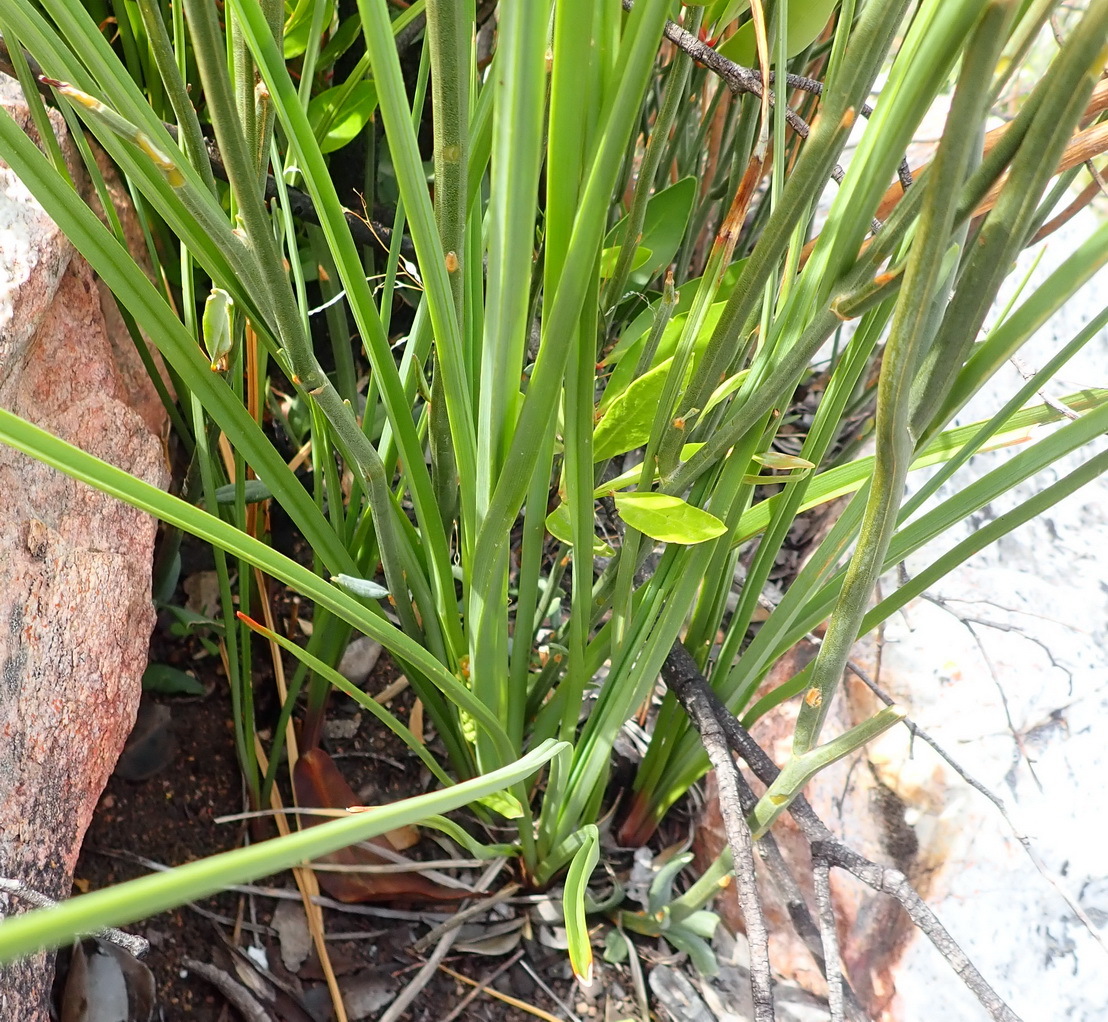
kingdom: Plantae
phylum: Tracheophyta
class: Liliopsida
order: Asparagales
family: Asphodelaceae
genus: Kniphofia
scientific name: Kniphofia uvaria
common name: Red-hot-poker
